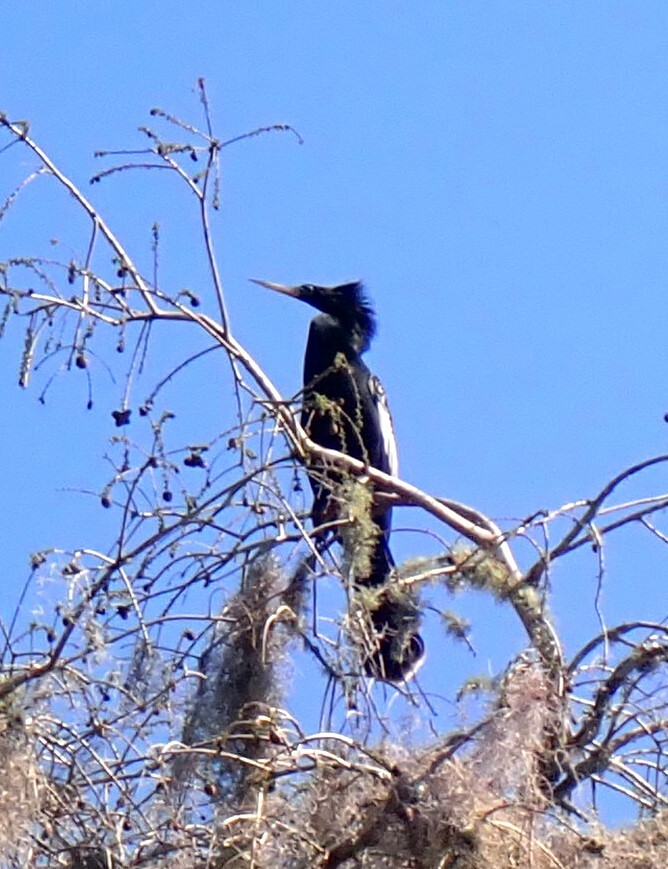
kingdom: Animalia
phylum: Chordata
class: Aves
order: Suliformes
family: Anhingidae
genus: Anhinga
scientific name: Anhinga anhinga
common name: Anhinga
